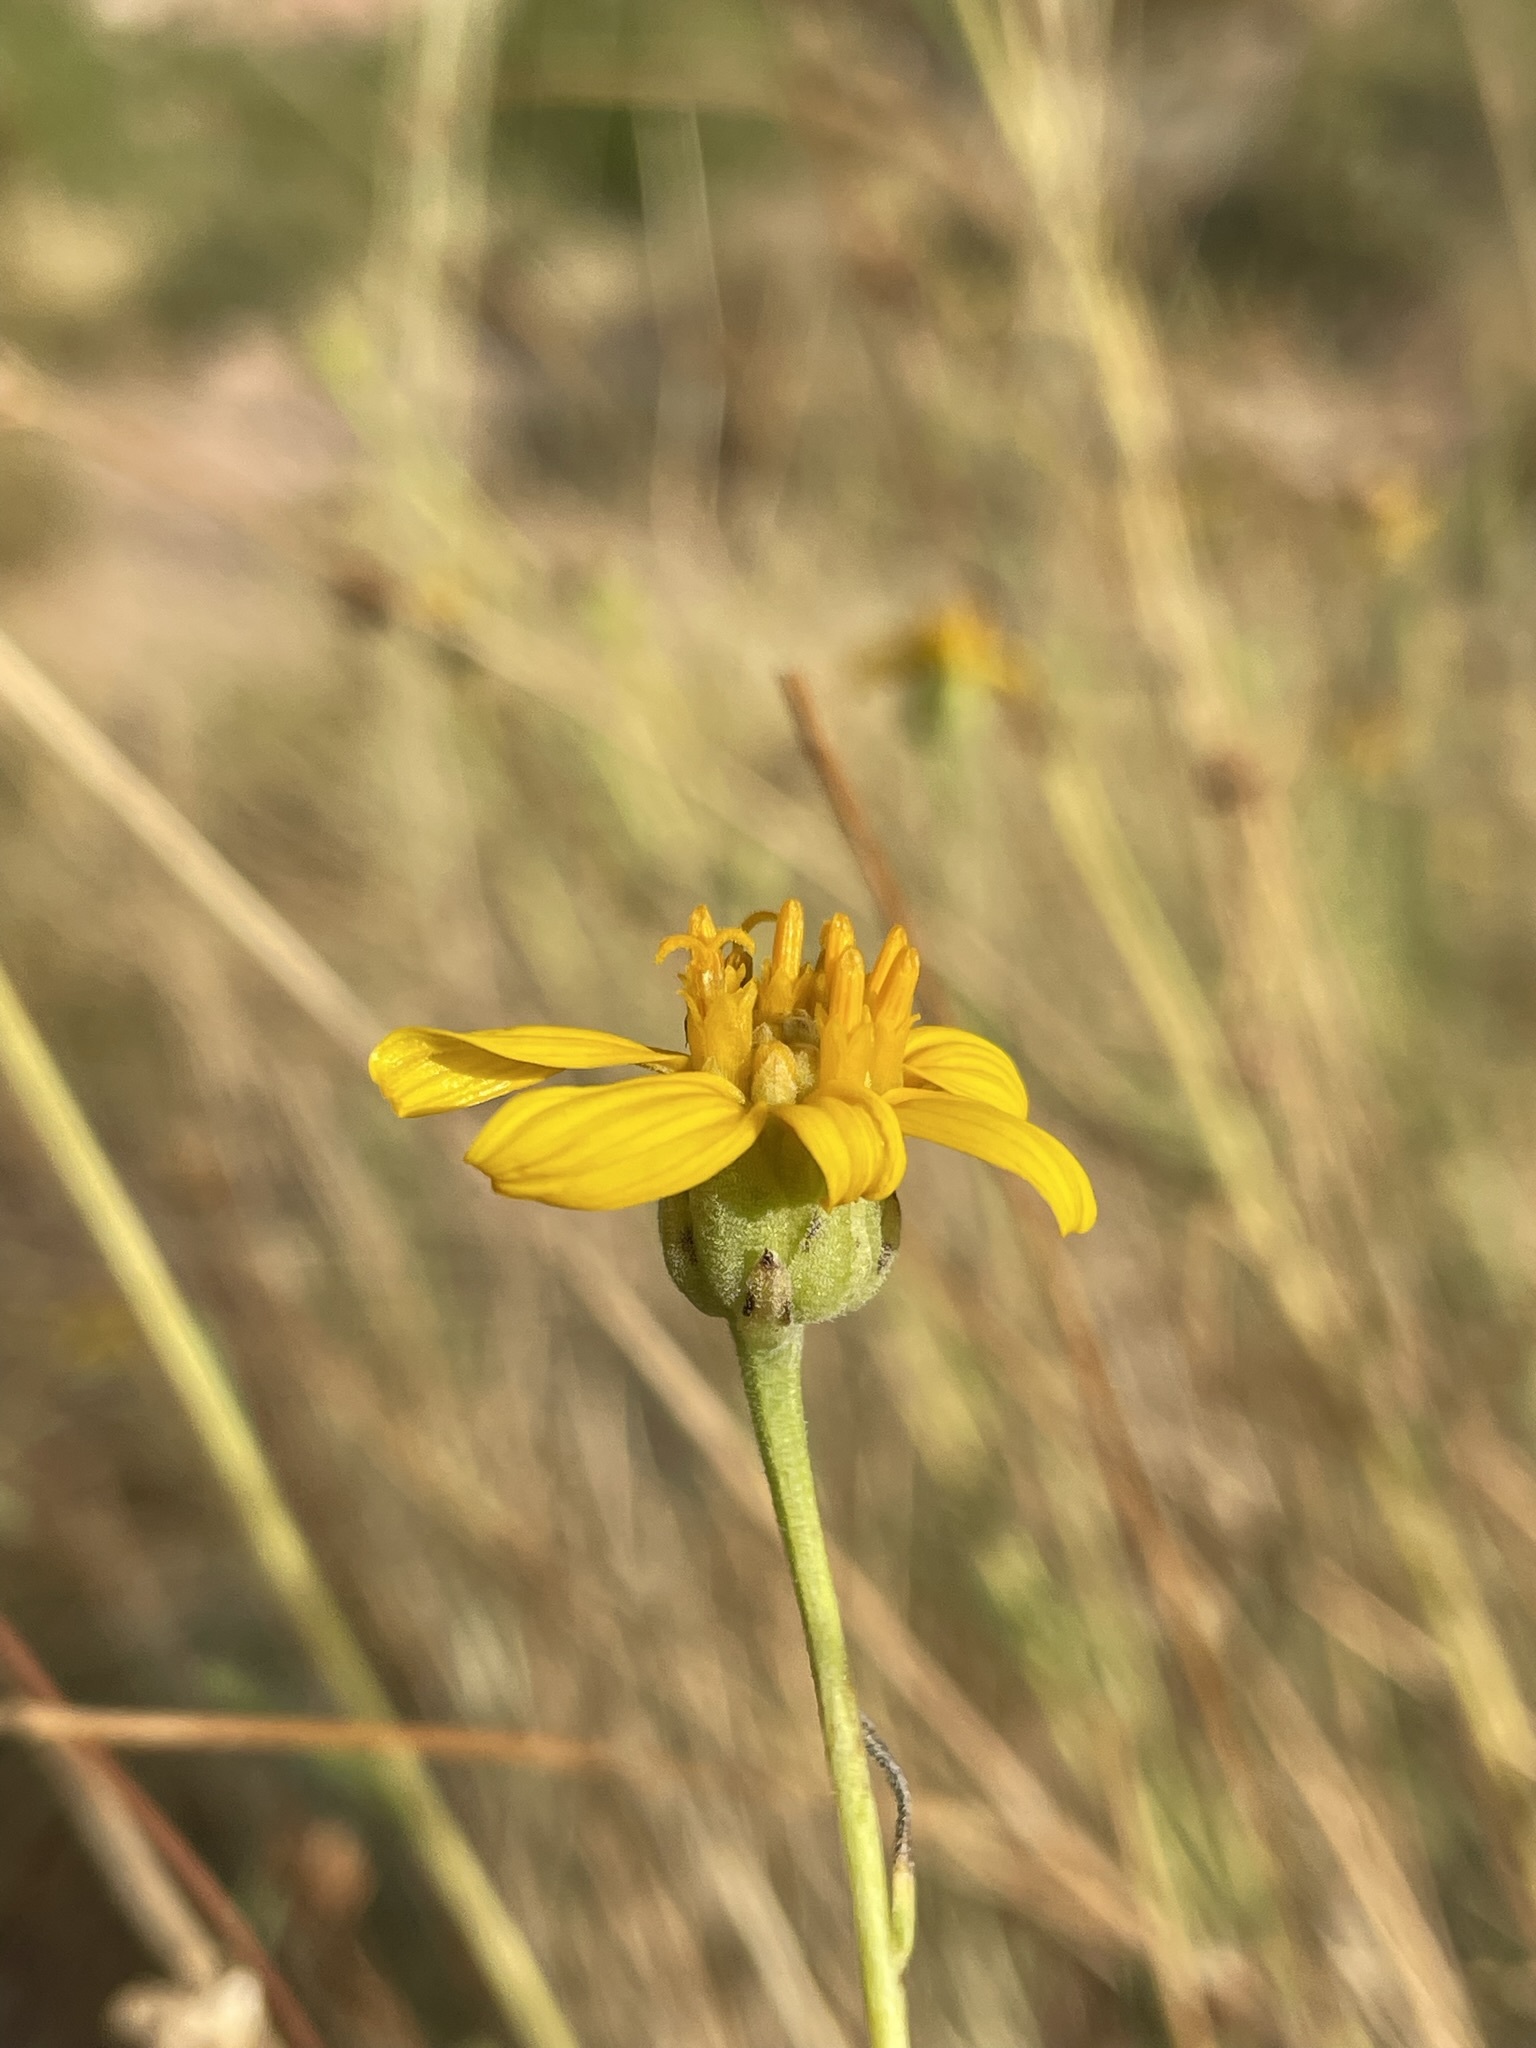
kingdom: Plantae
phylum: Tracheophyta
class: Magnoliopsida
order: Asterales
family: Asteraceae
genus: Helianthus
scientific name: Helianthus devernii
